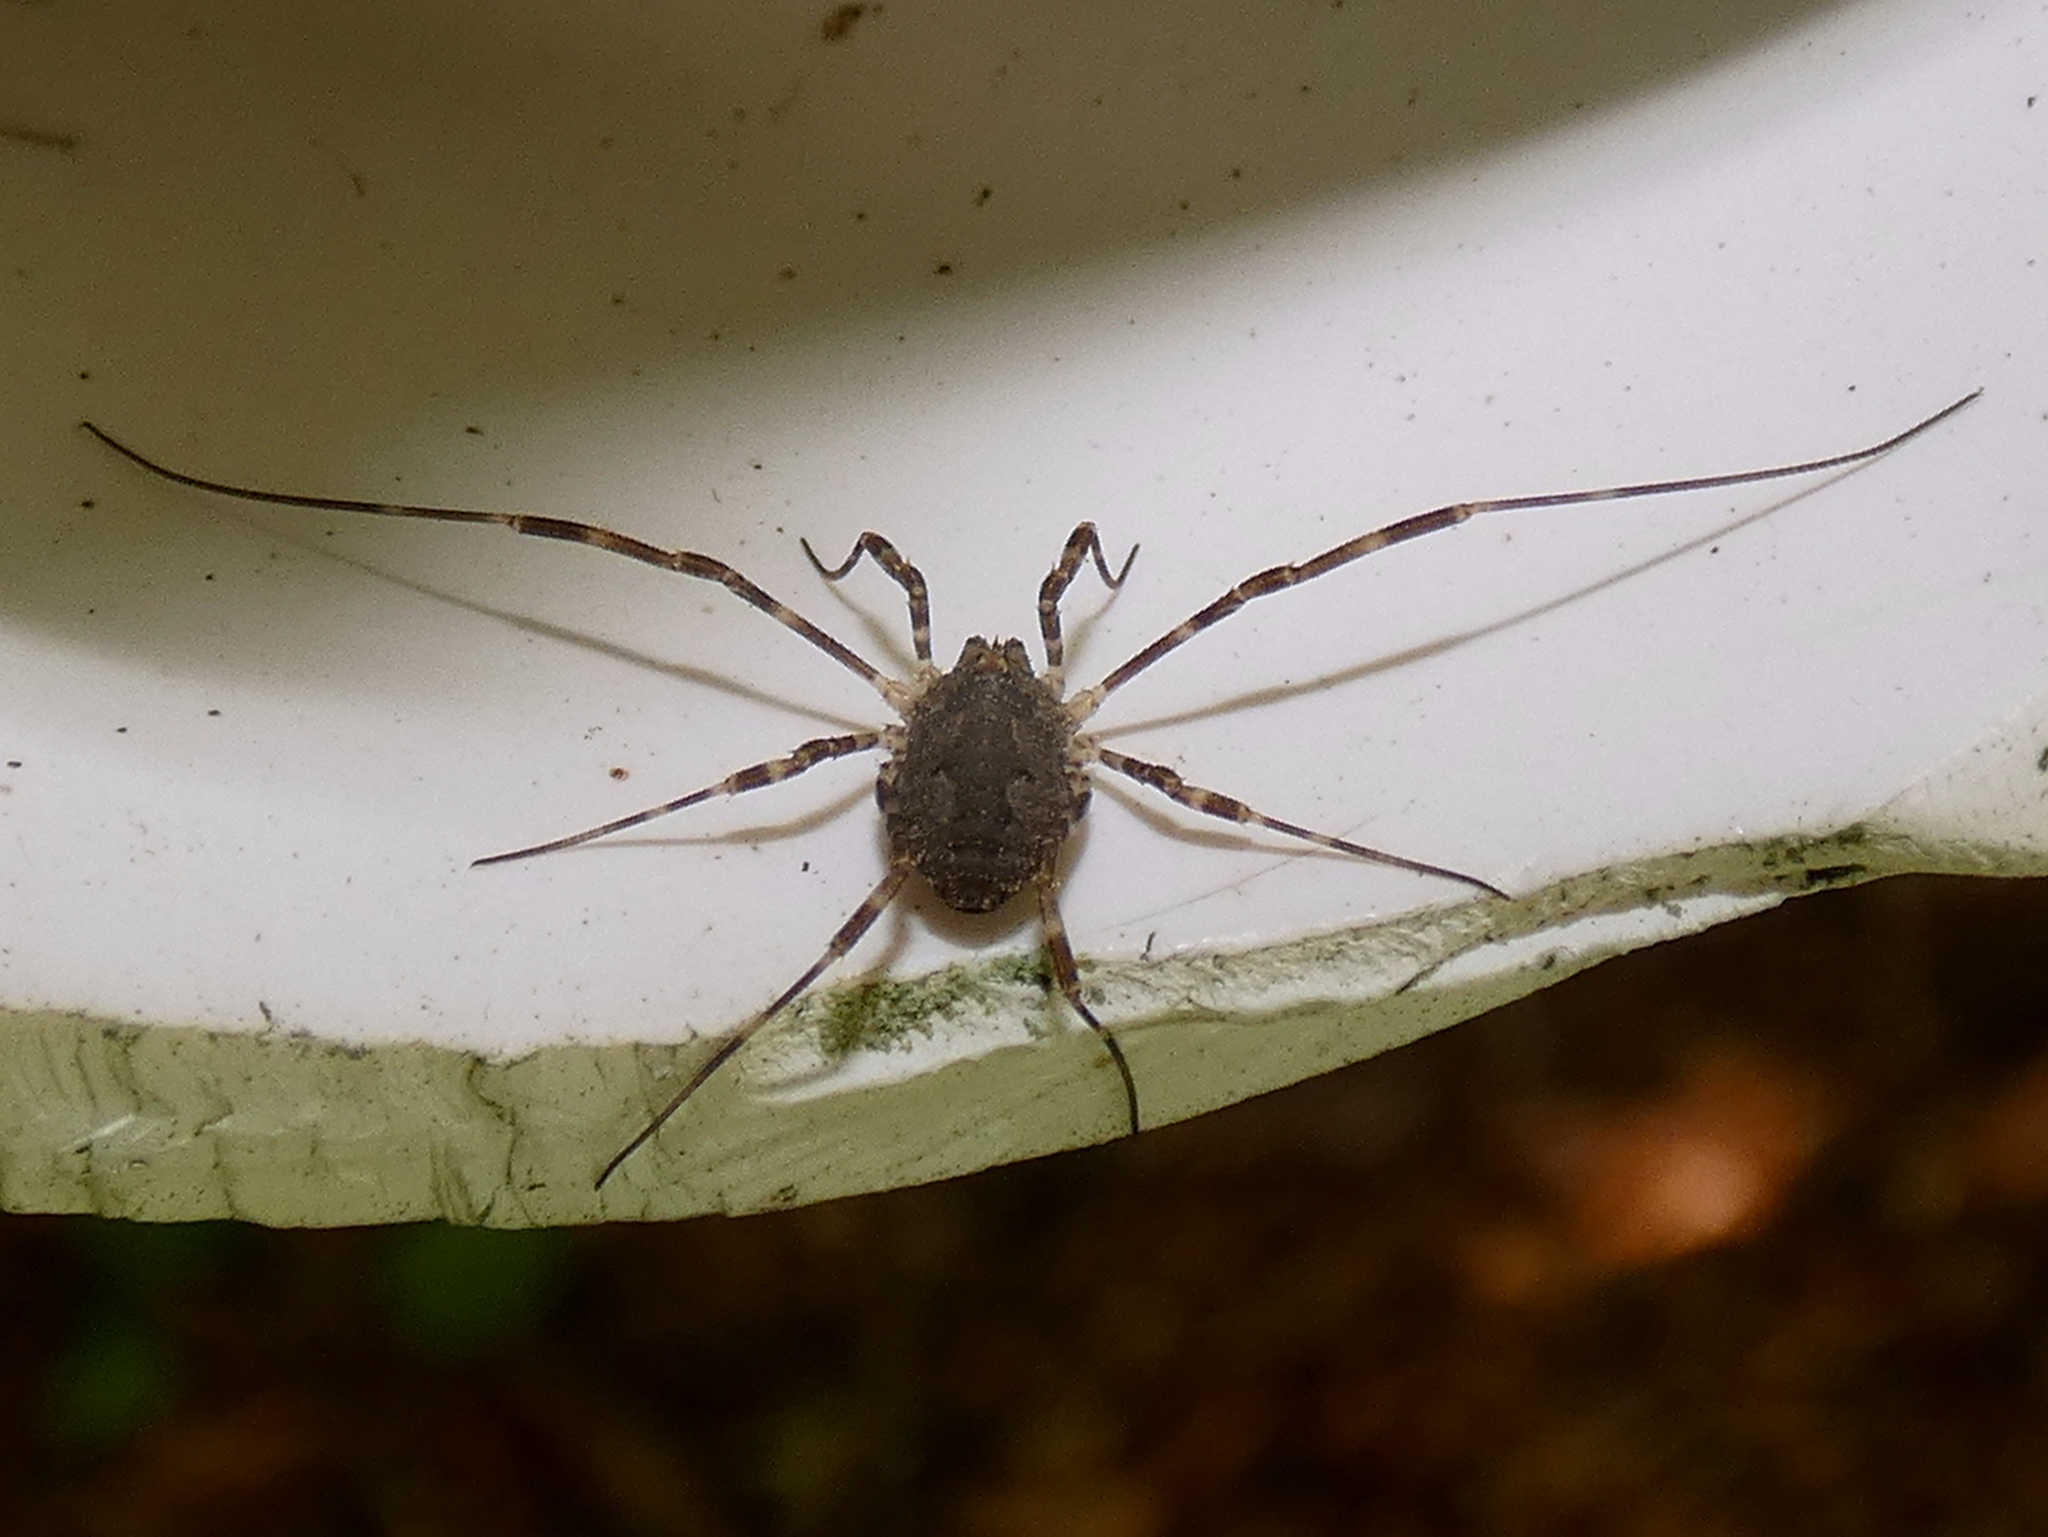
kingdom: Animalia
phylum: Arthropoda
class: Arachnida
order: Opiliones
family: Phalangiidae
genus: Odiellus
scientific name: Odiellus pictus
